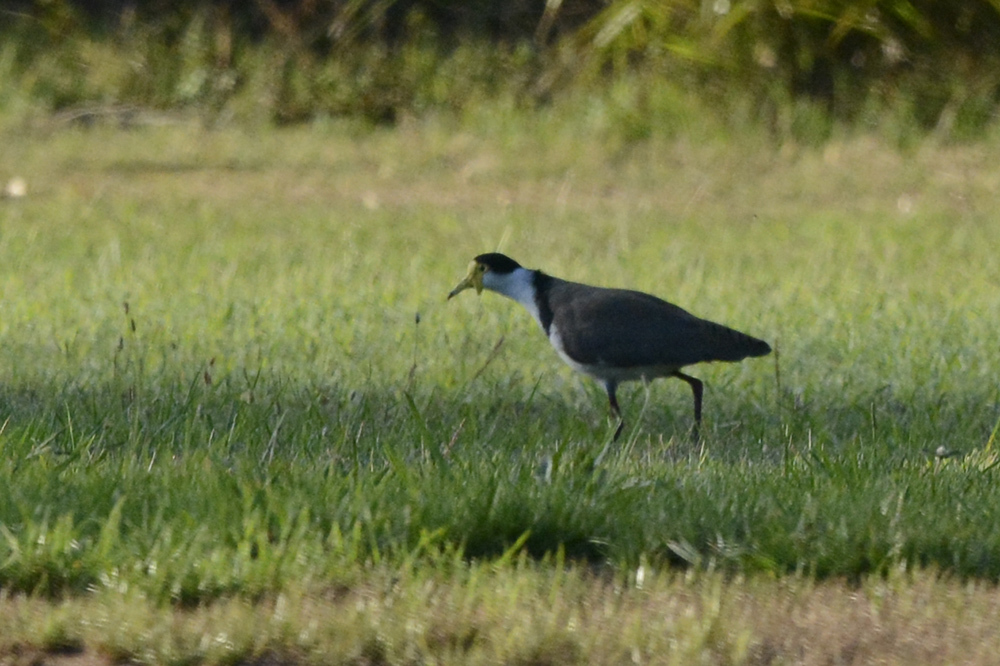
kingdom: Animalia
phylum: Chordata
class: Aves
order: Charadriiformes
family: Charadriidae
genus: Vanellus
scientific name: Vanellus miles
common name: Masked lapwing
